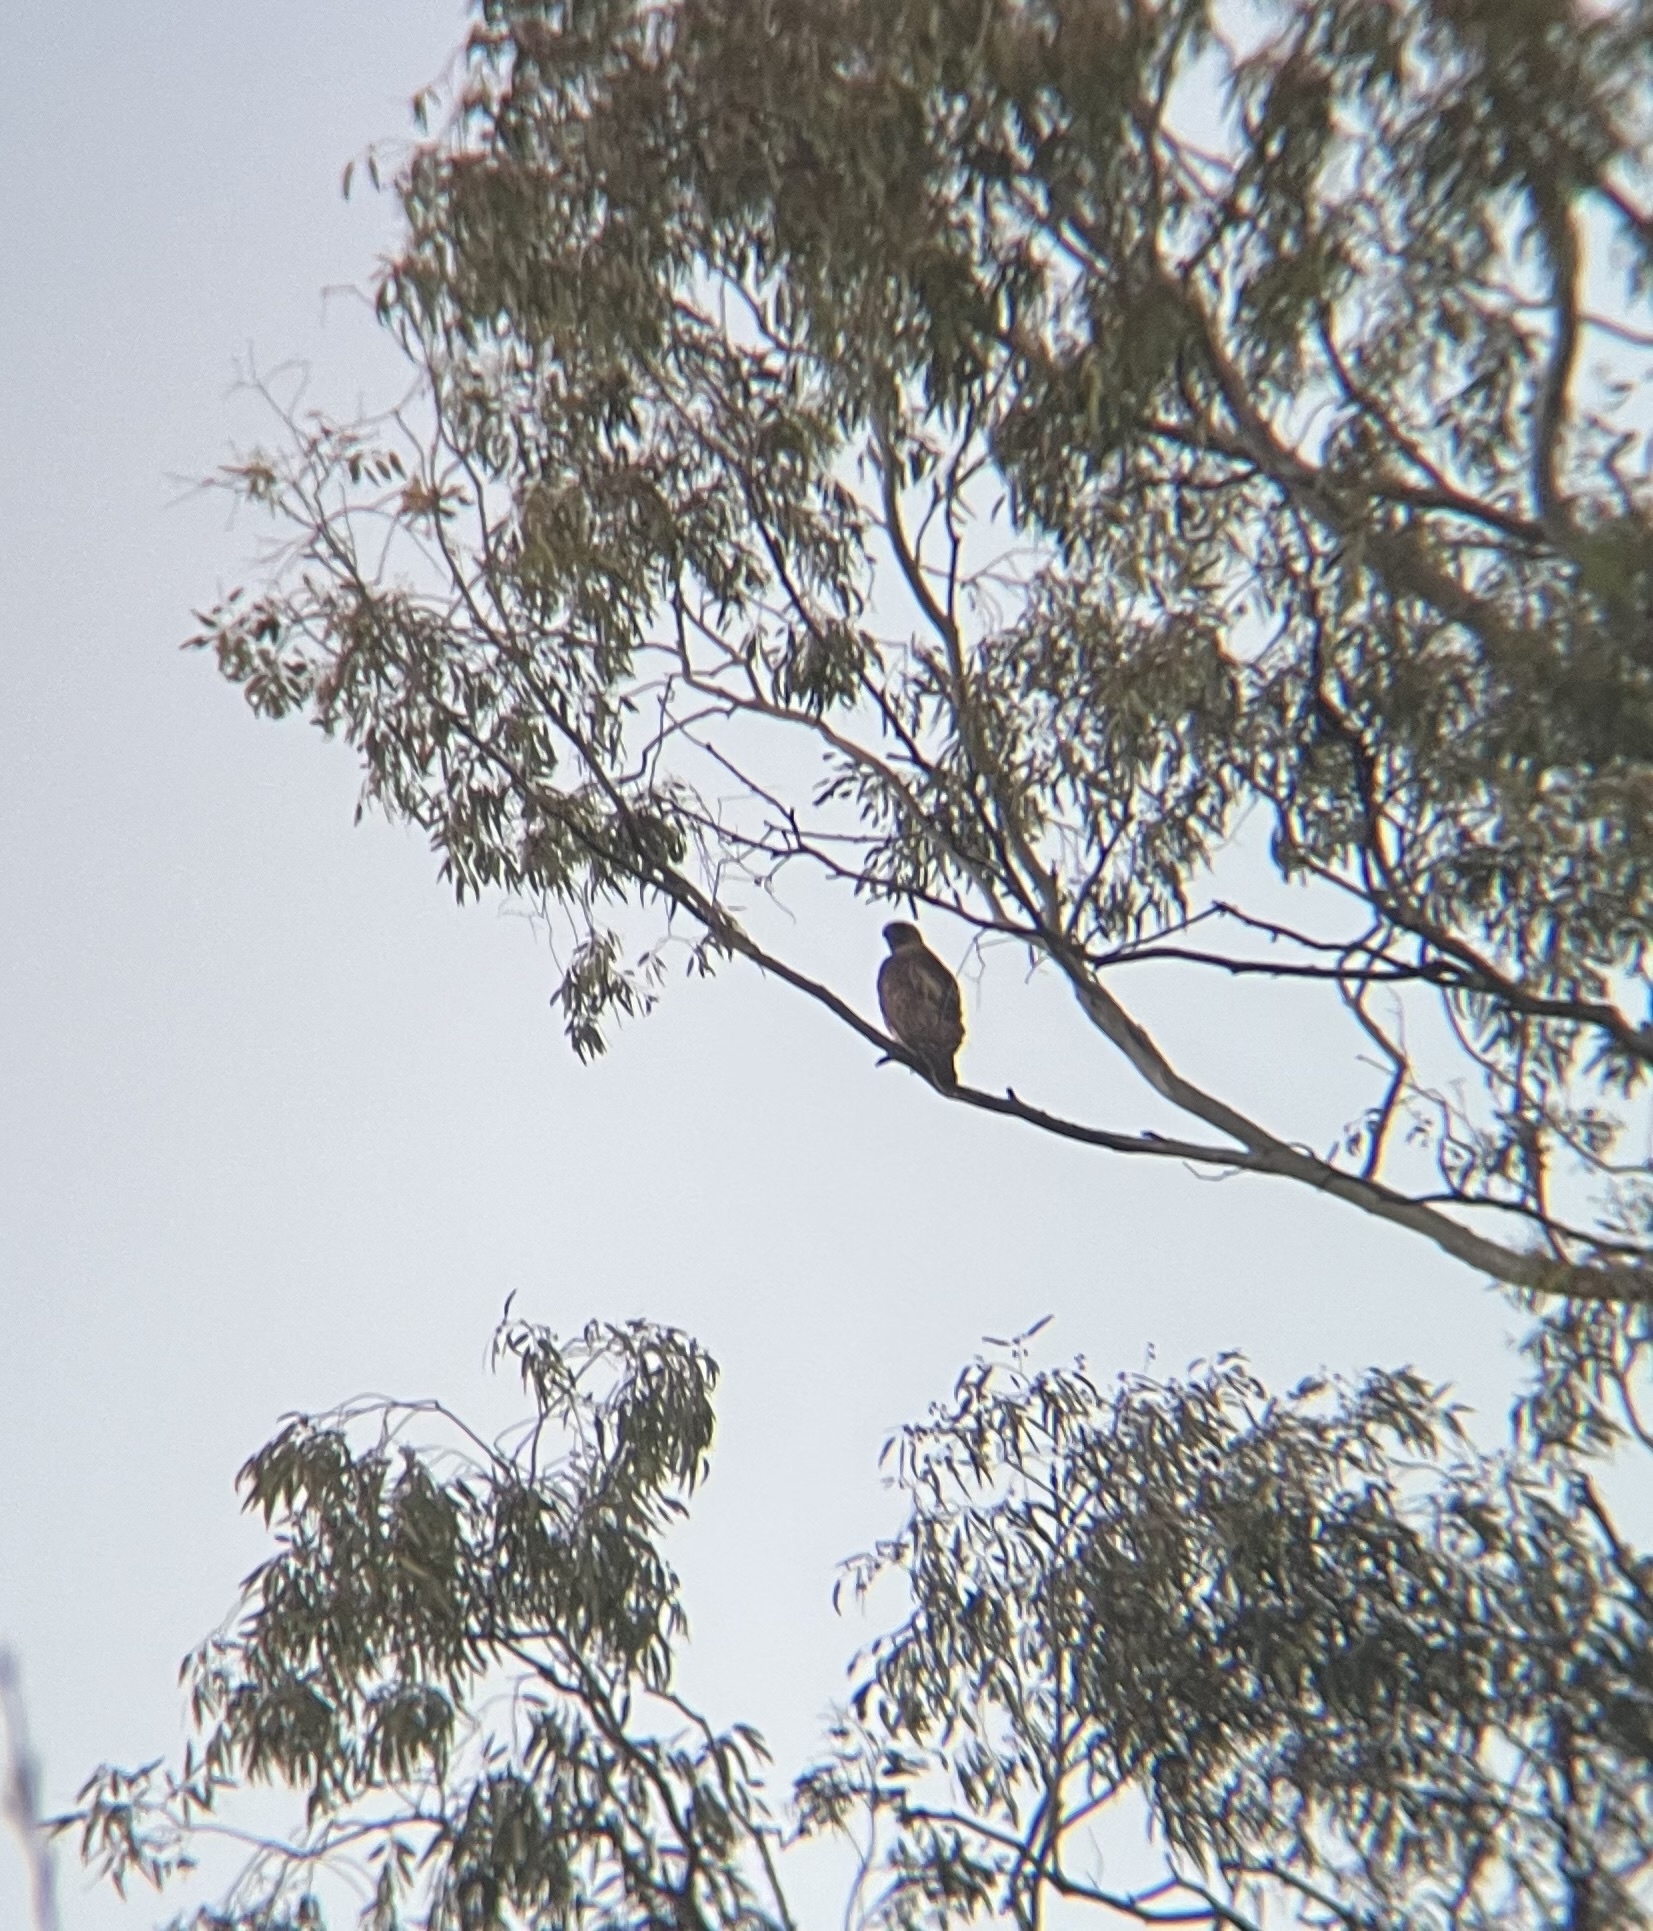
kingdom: Animalia
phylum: Chordata
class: Aves
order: Accipitriformes
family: Accipitridae
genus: Buteo
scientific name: Buteo jamaicensis
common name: Red-tailed hawk
